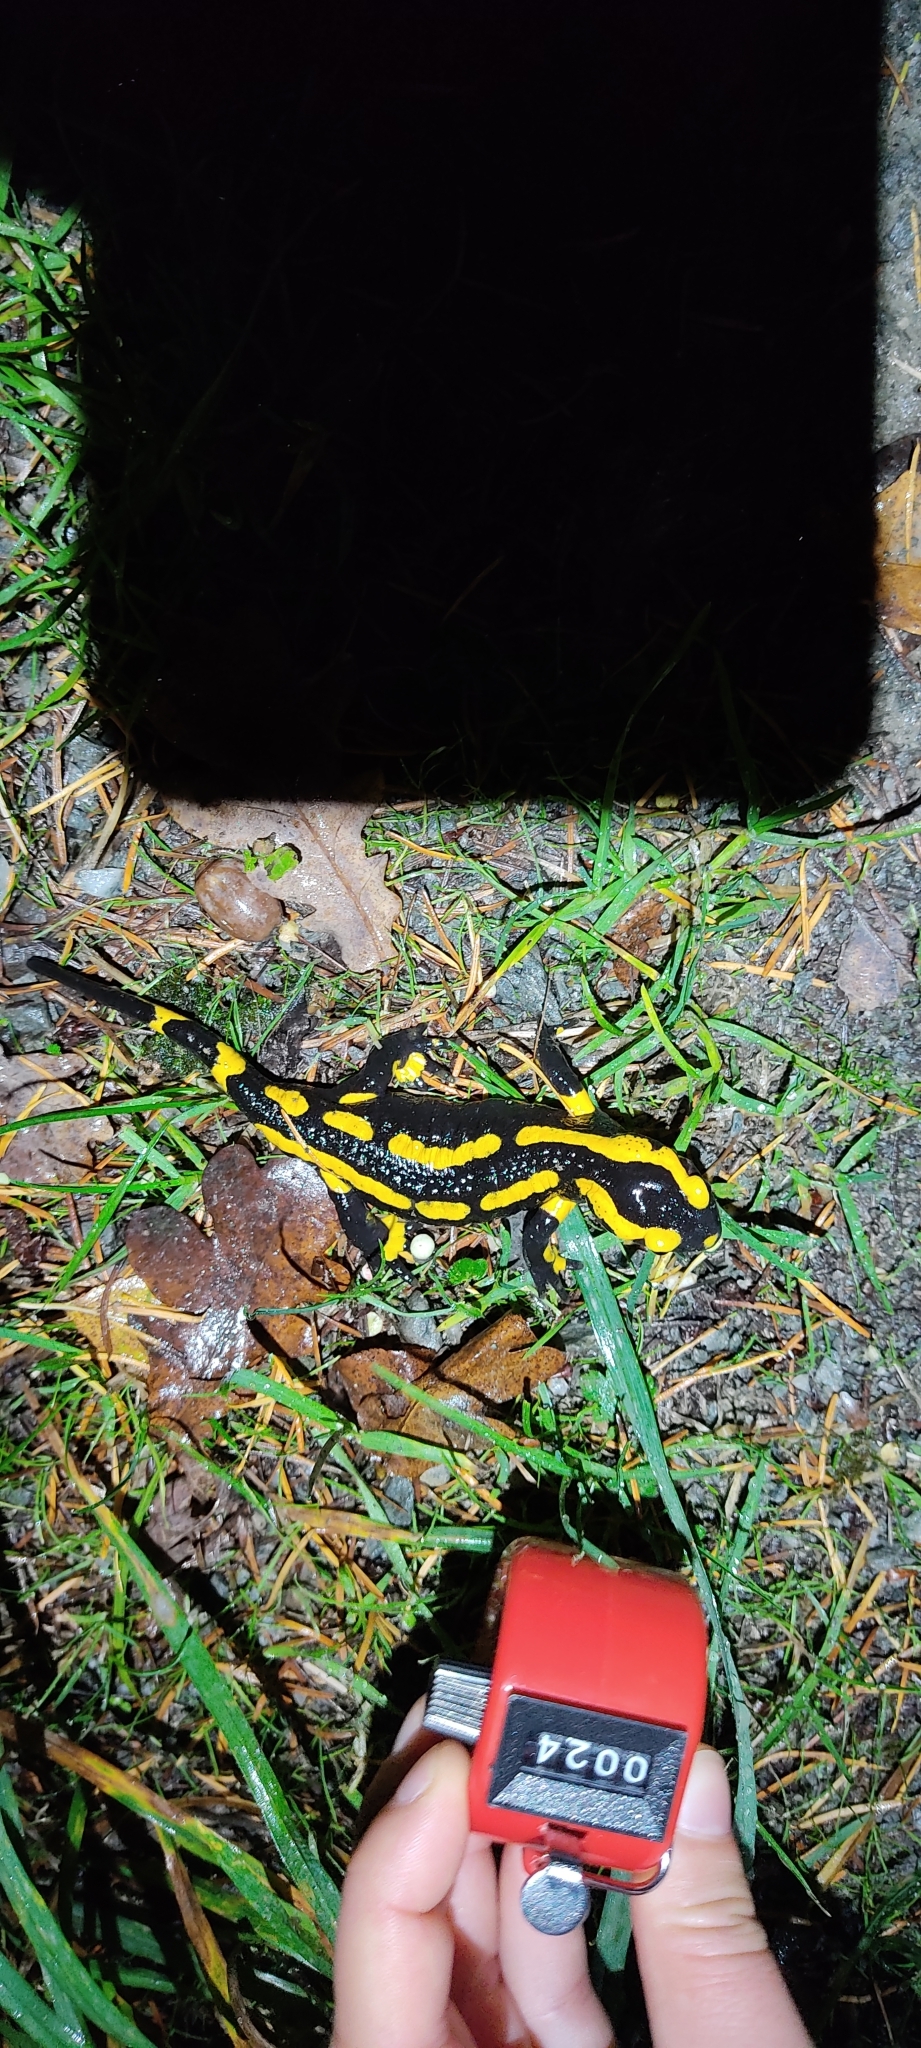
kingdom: Animalia
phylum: Chordata
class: Amphibia
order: Caudata
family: Salamandridae
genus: Salamandra
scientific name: Salamandra salamandra
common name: Fire salamander
